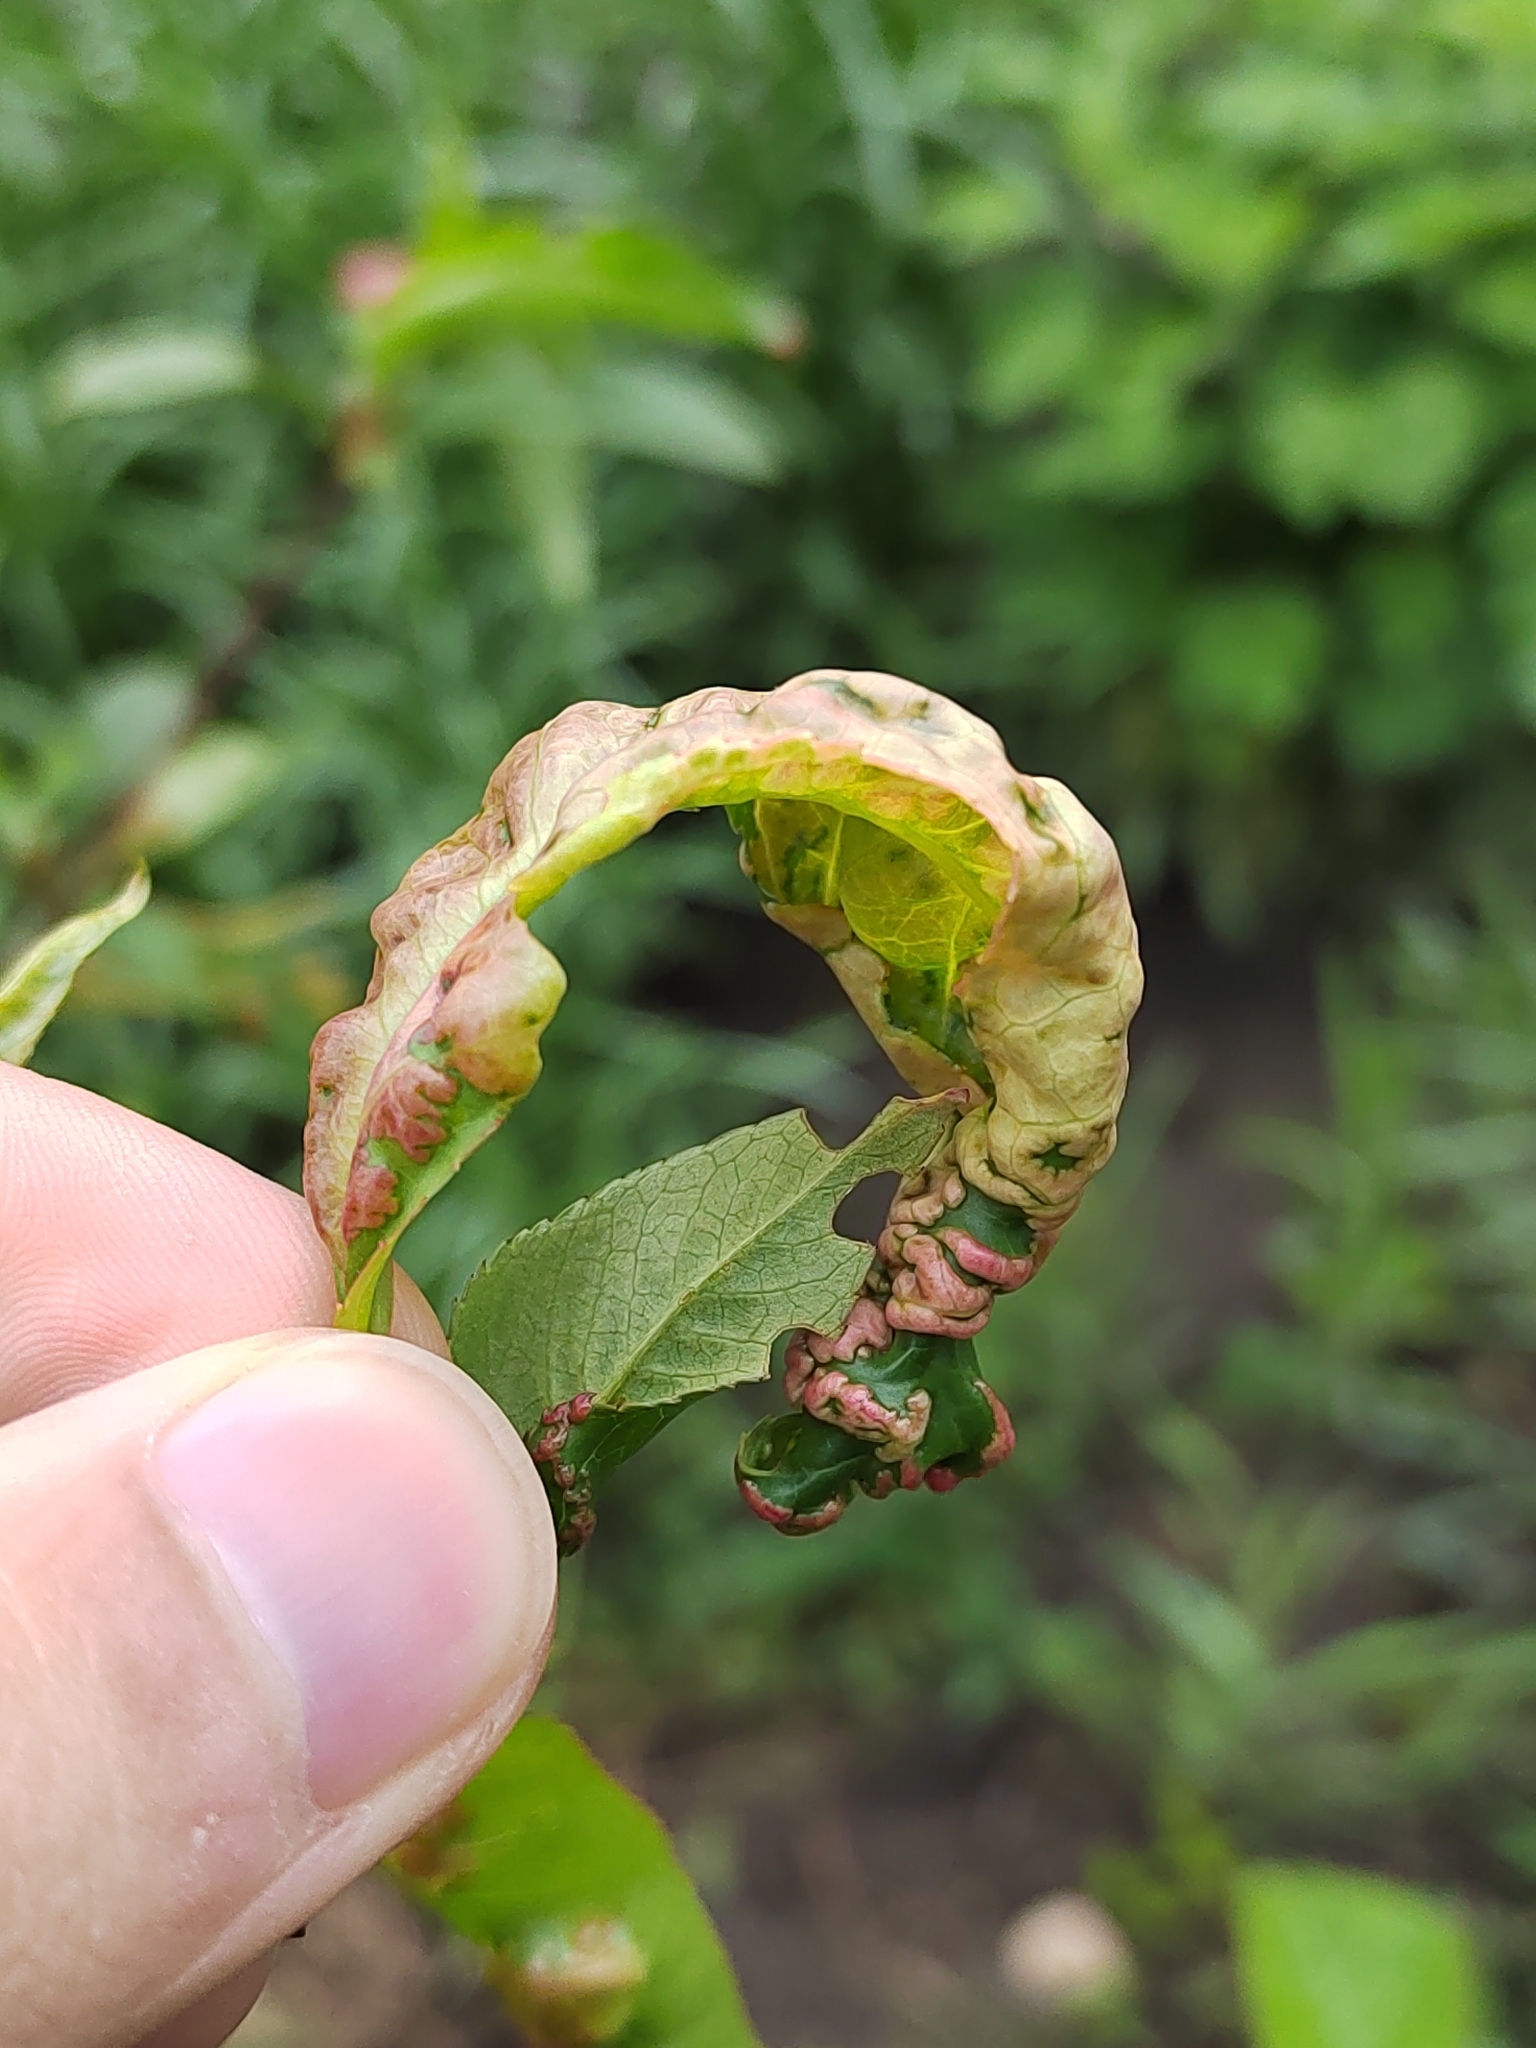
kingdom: Fungi
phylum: Ascomycota
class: Taphrinomycetes
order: Taphrinales
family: Taphrinaceae
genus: Taphrina
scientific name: Taphrina deformans
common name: Peach leaf curl
